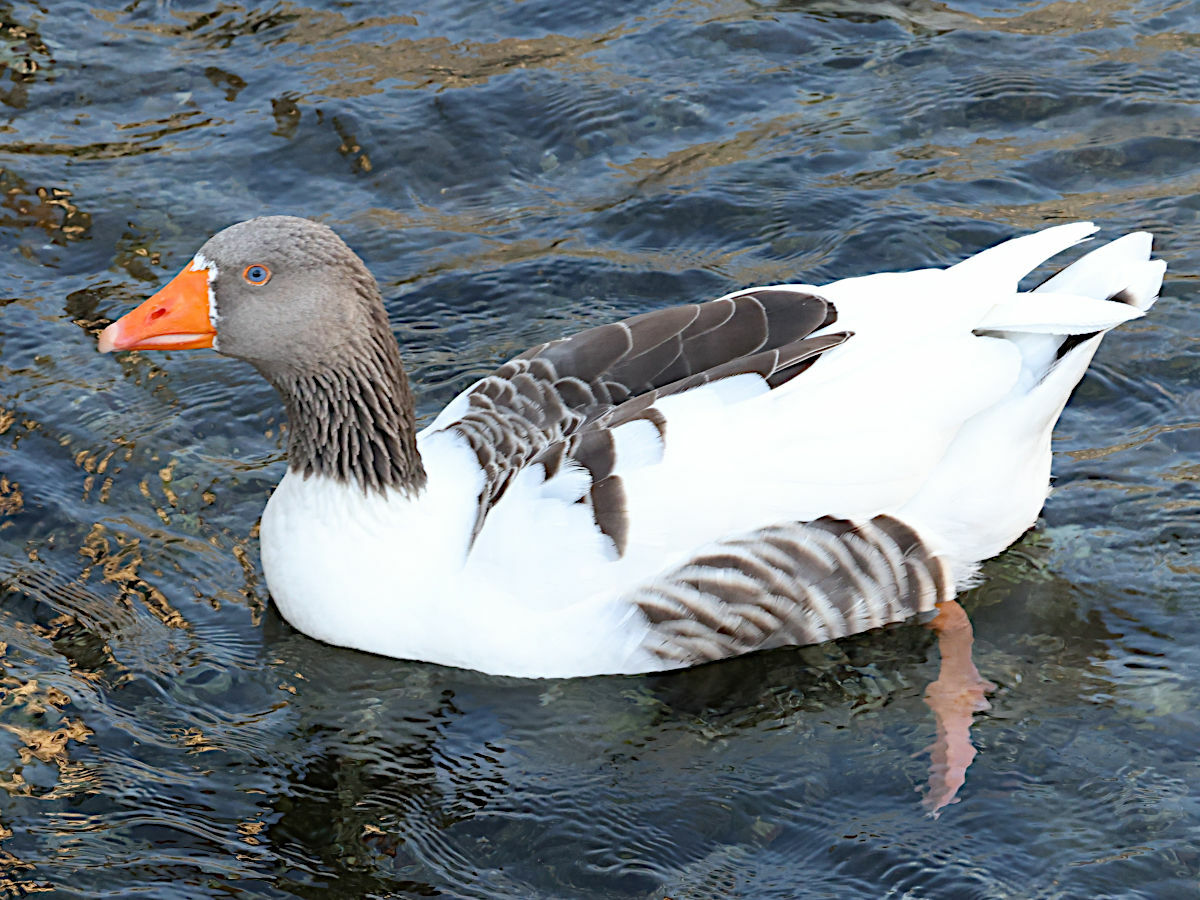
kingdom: Animalia
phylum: Chordata
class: Aves
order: Anseriformes
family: Anatidae
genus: Anser
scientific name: Anser anser
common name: Greylag goose
